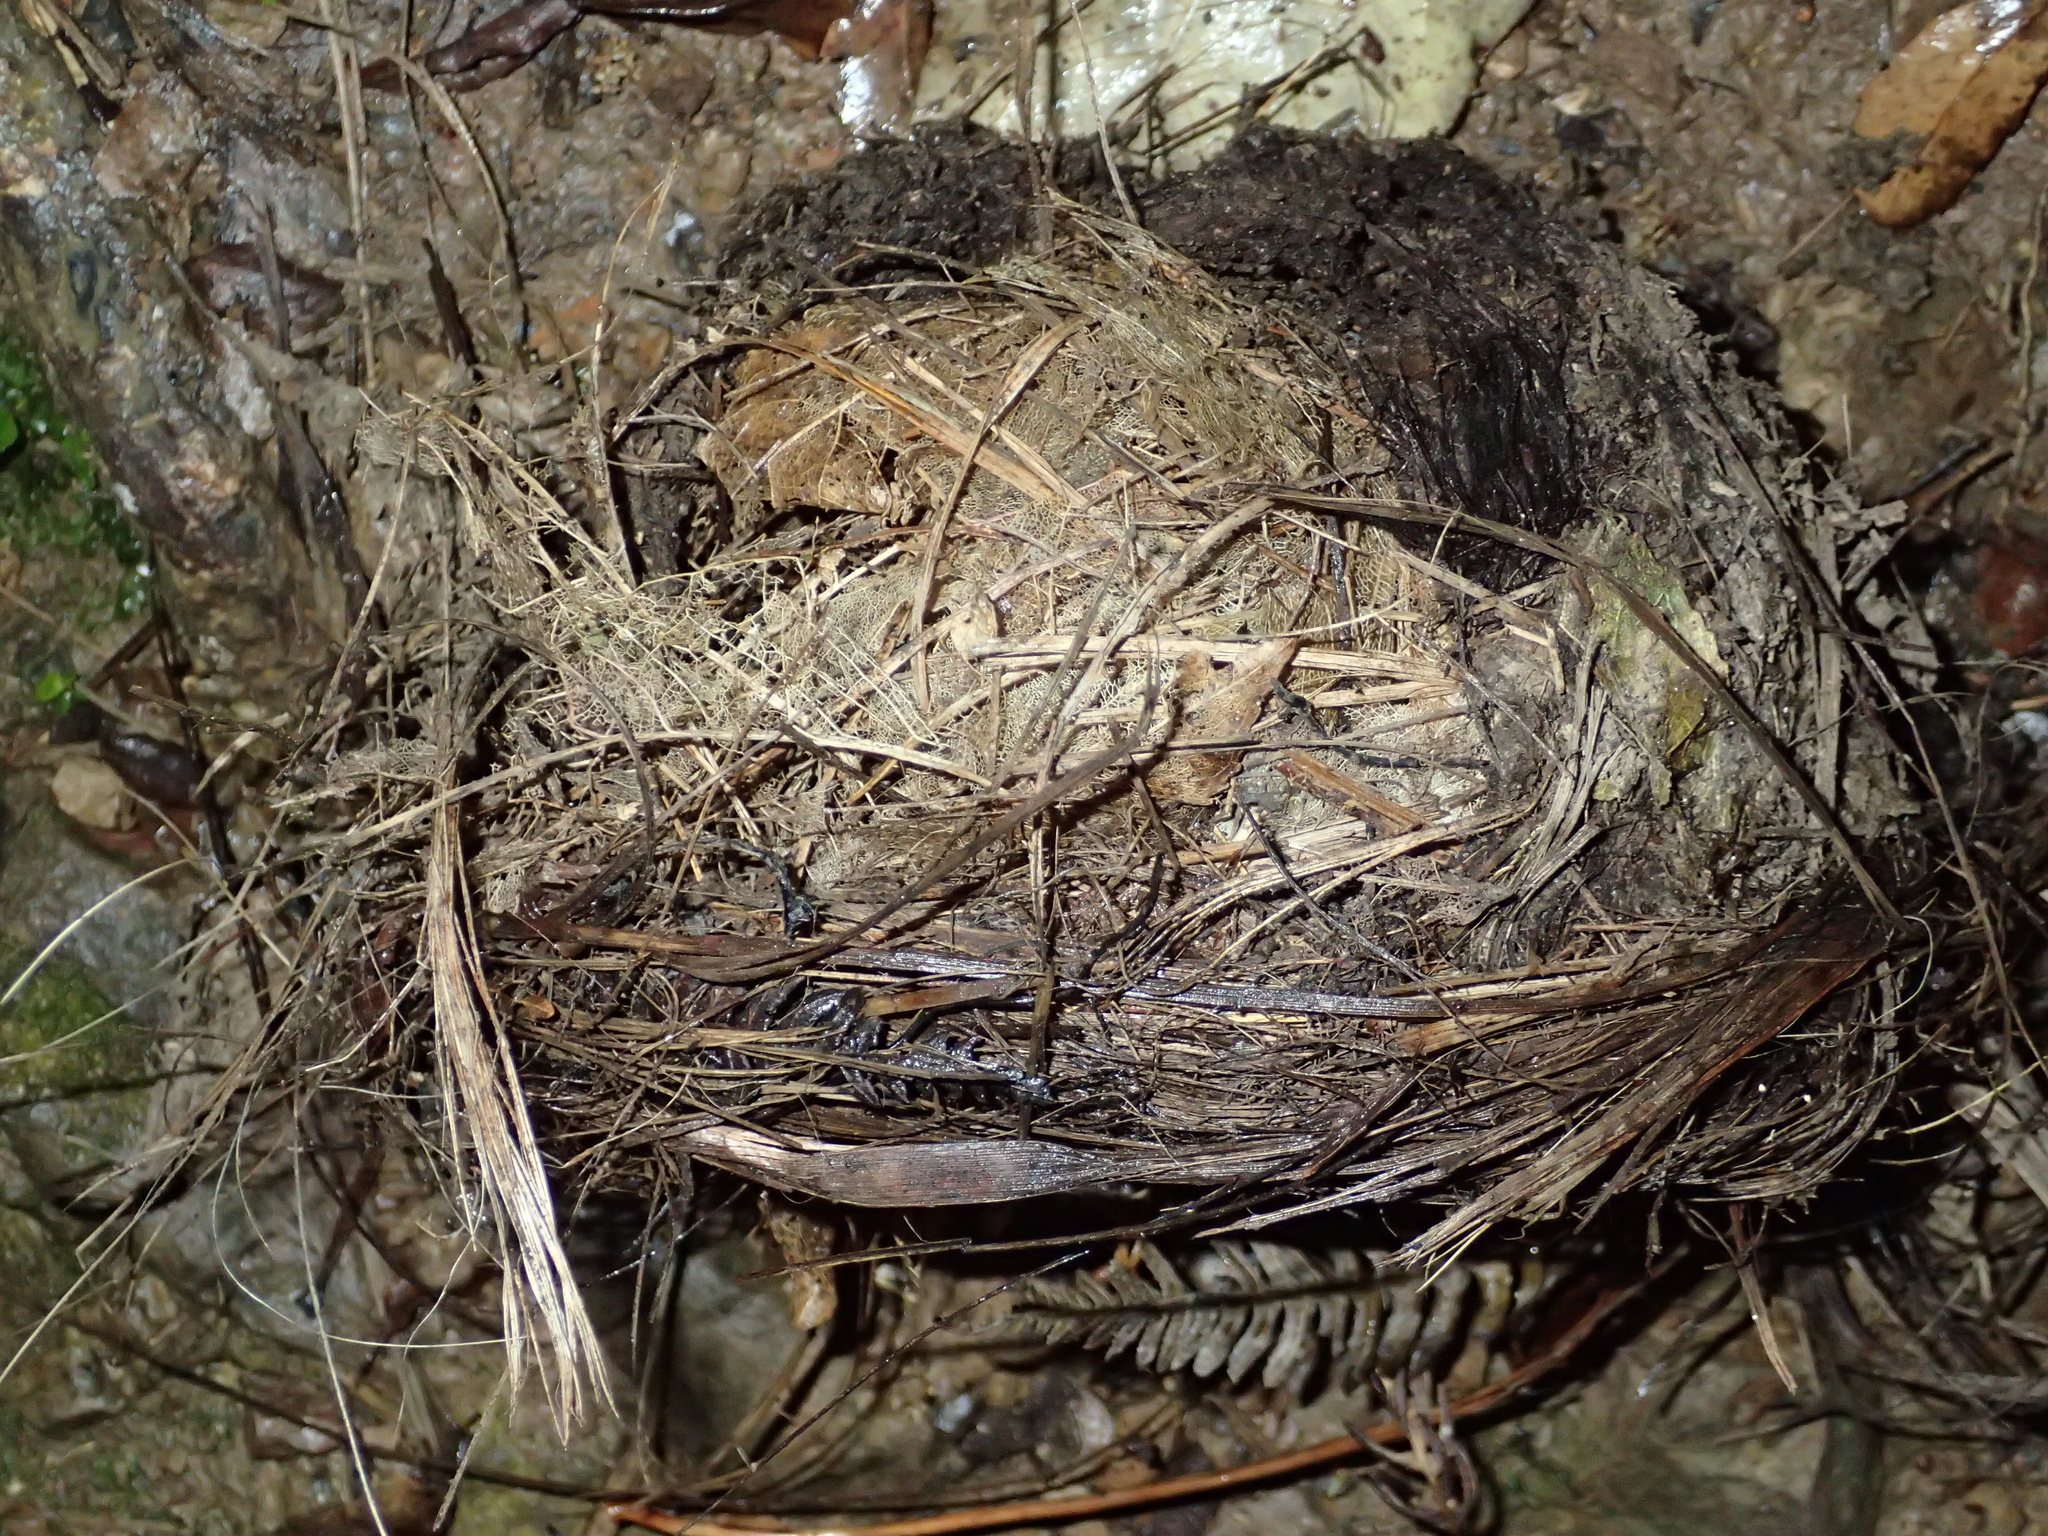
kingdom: Animalia
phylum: Chordata
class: Aves
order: Passeriformes
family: Turdidae
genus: Turdus
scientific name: Turdus merula
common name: Common blackbird
